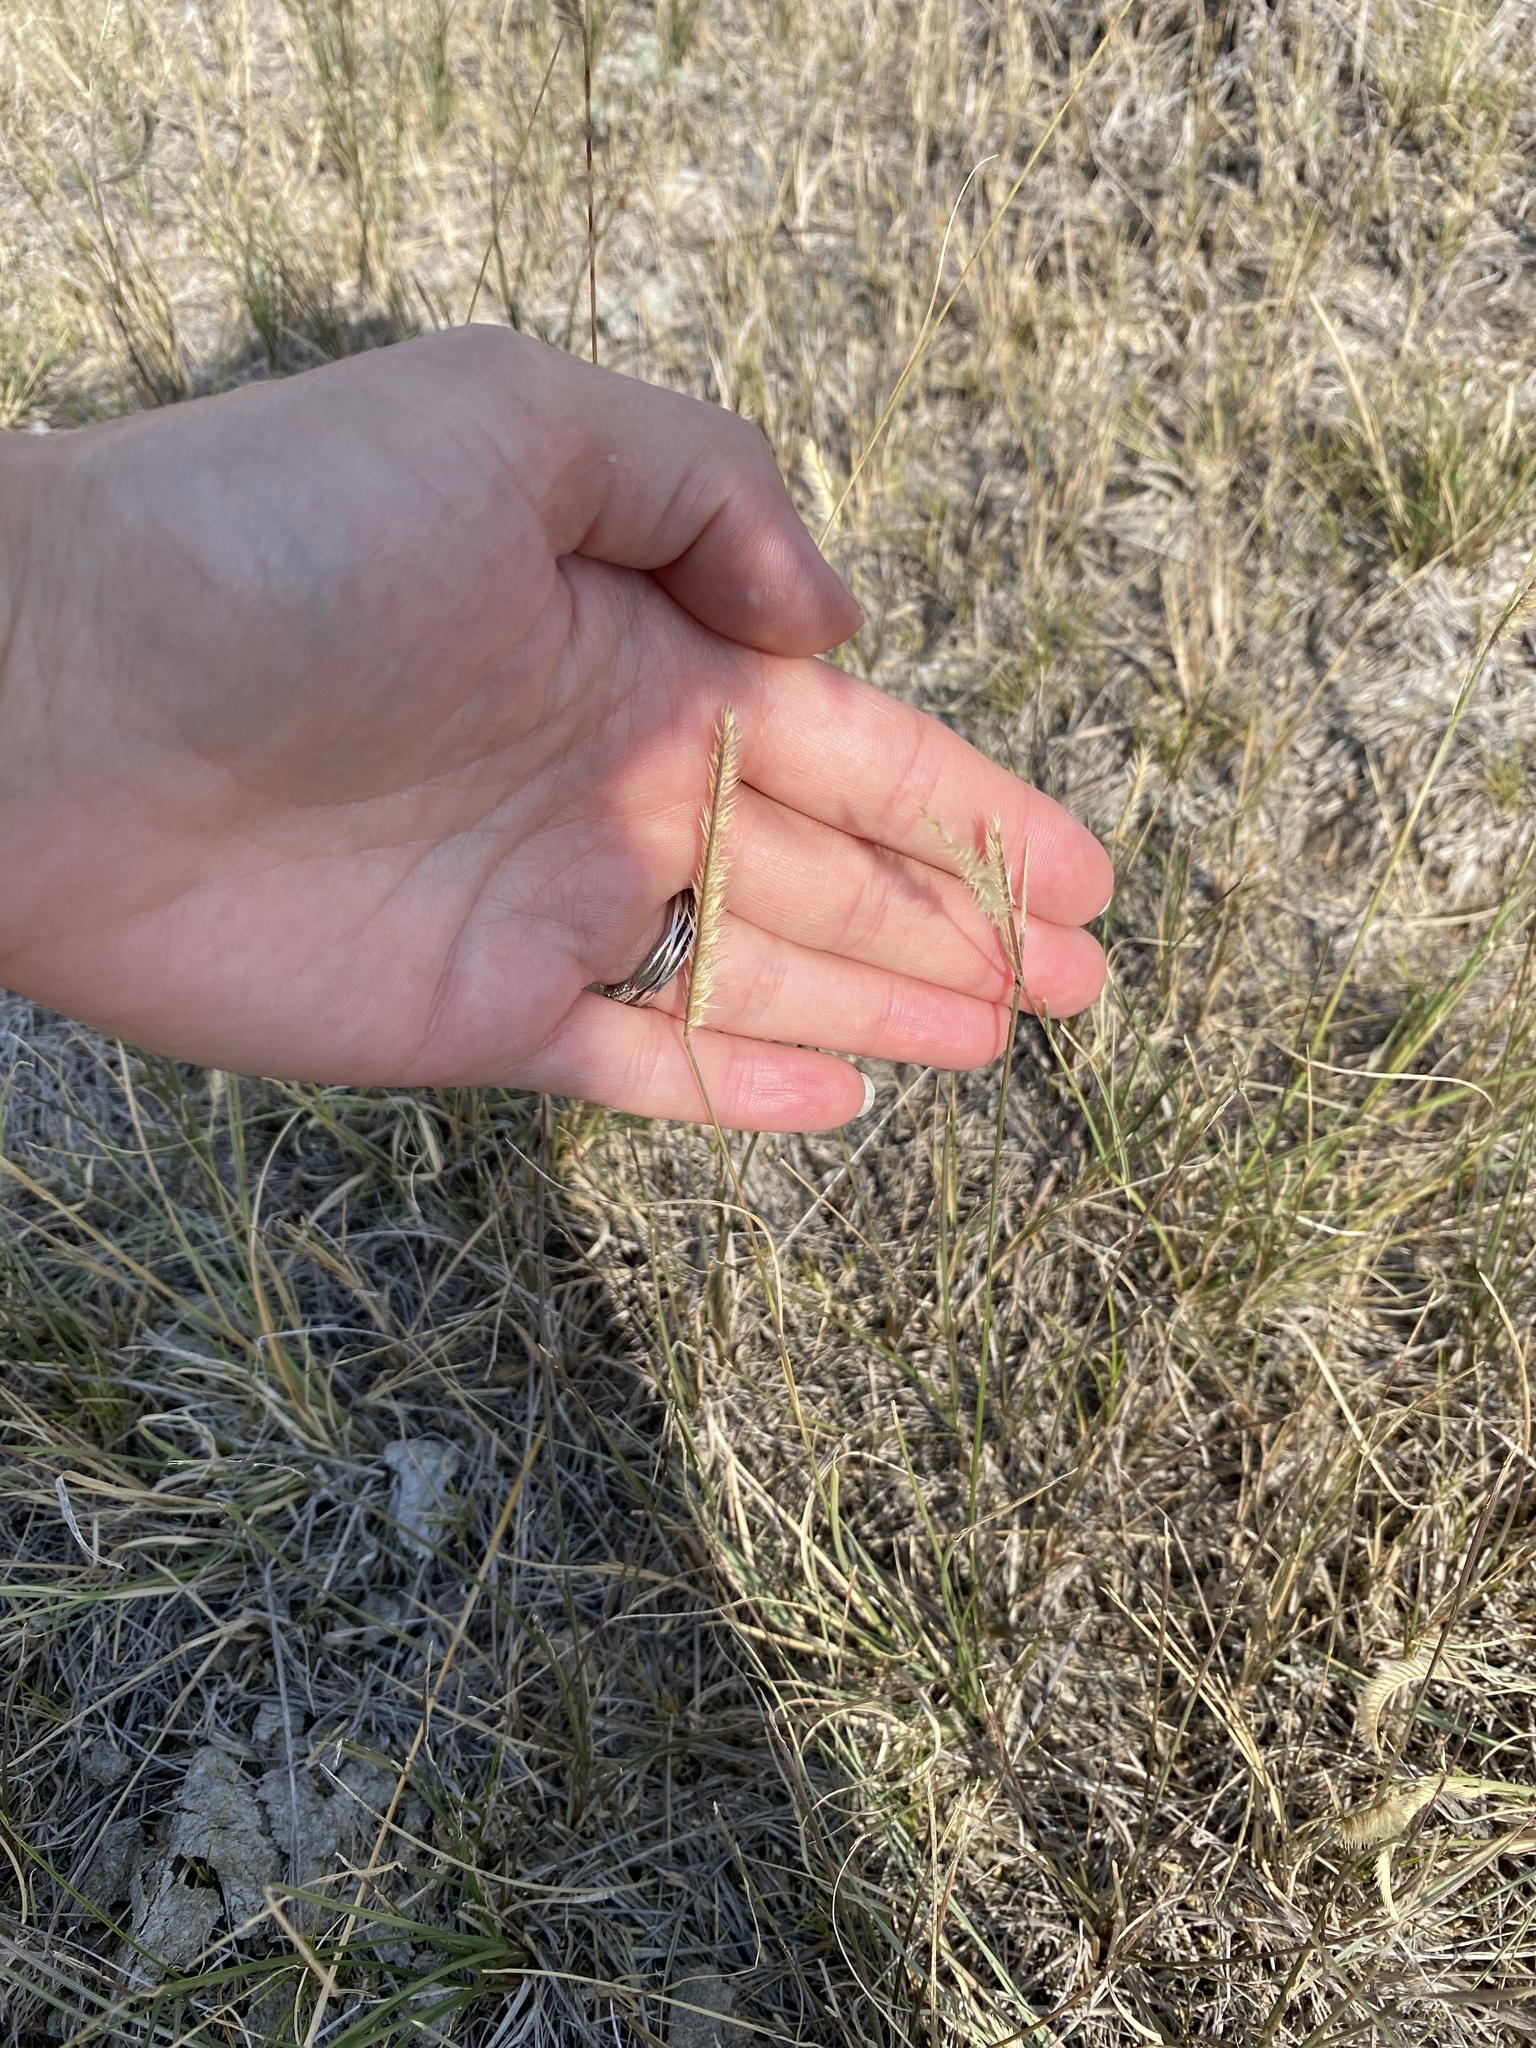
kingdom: Plantae
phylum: Tracheophyta
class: Liliopsida
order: Poales
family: Poaceae
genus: Bouteloua
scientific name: Bouteloua gracilis
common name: Blue grama
